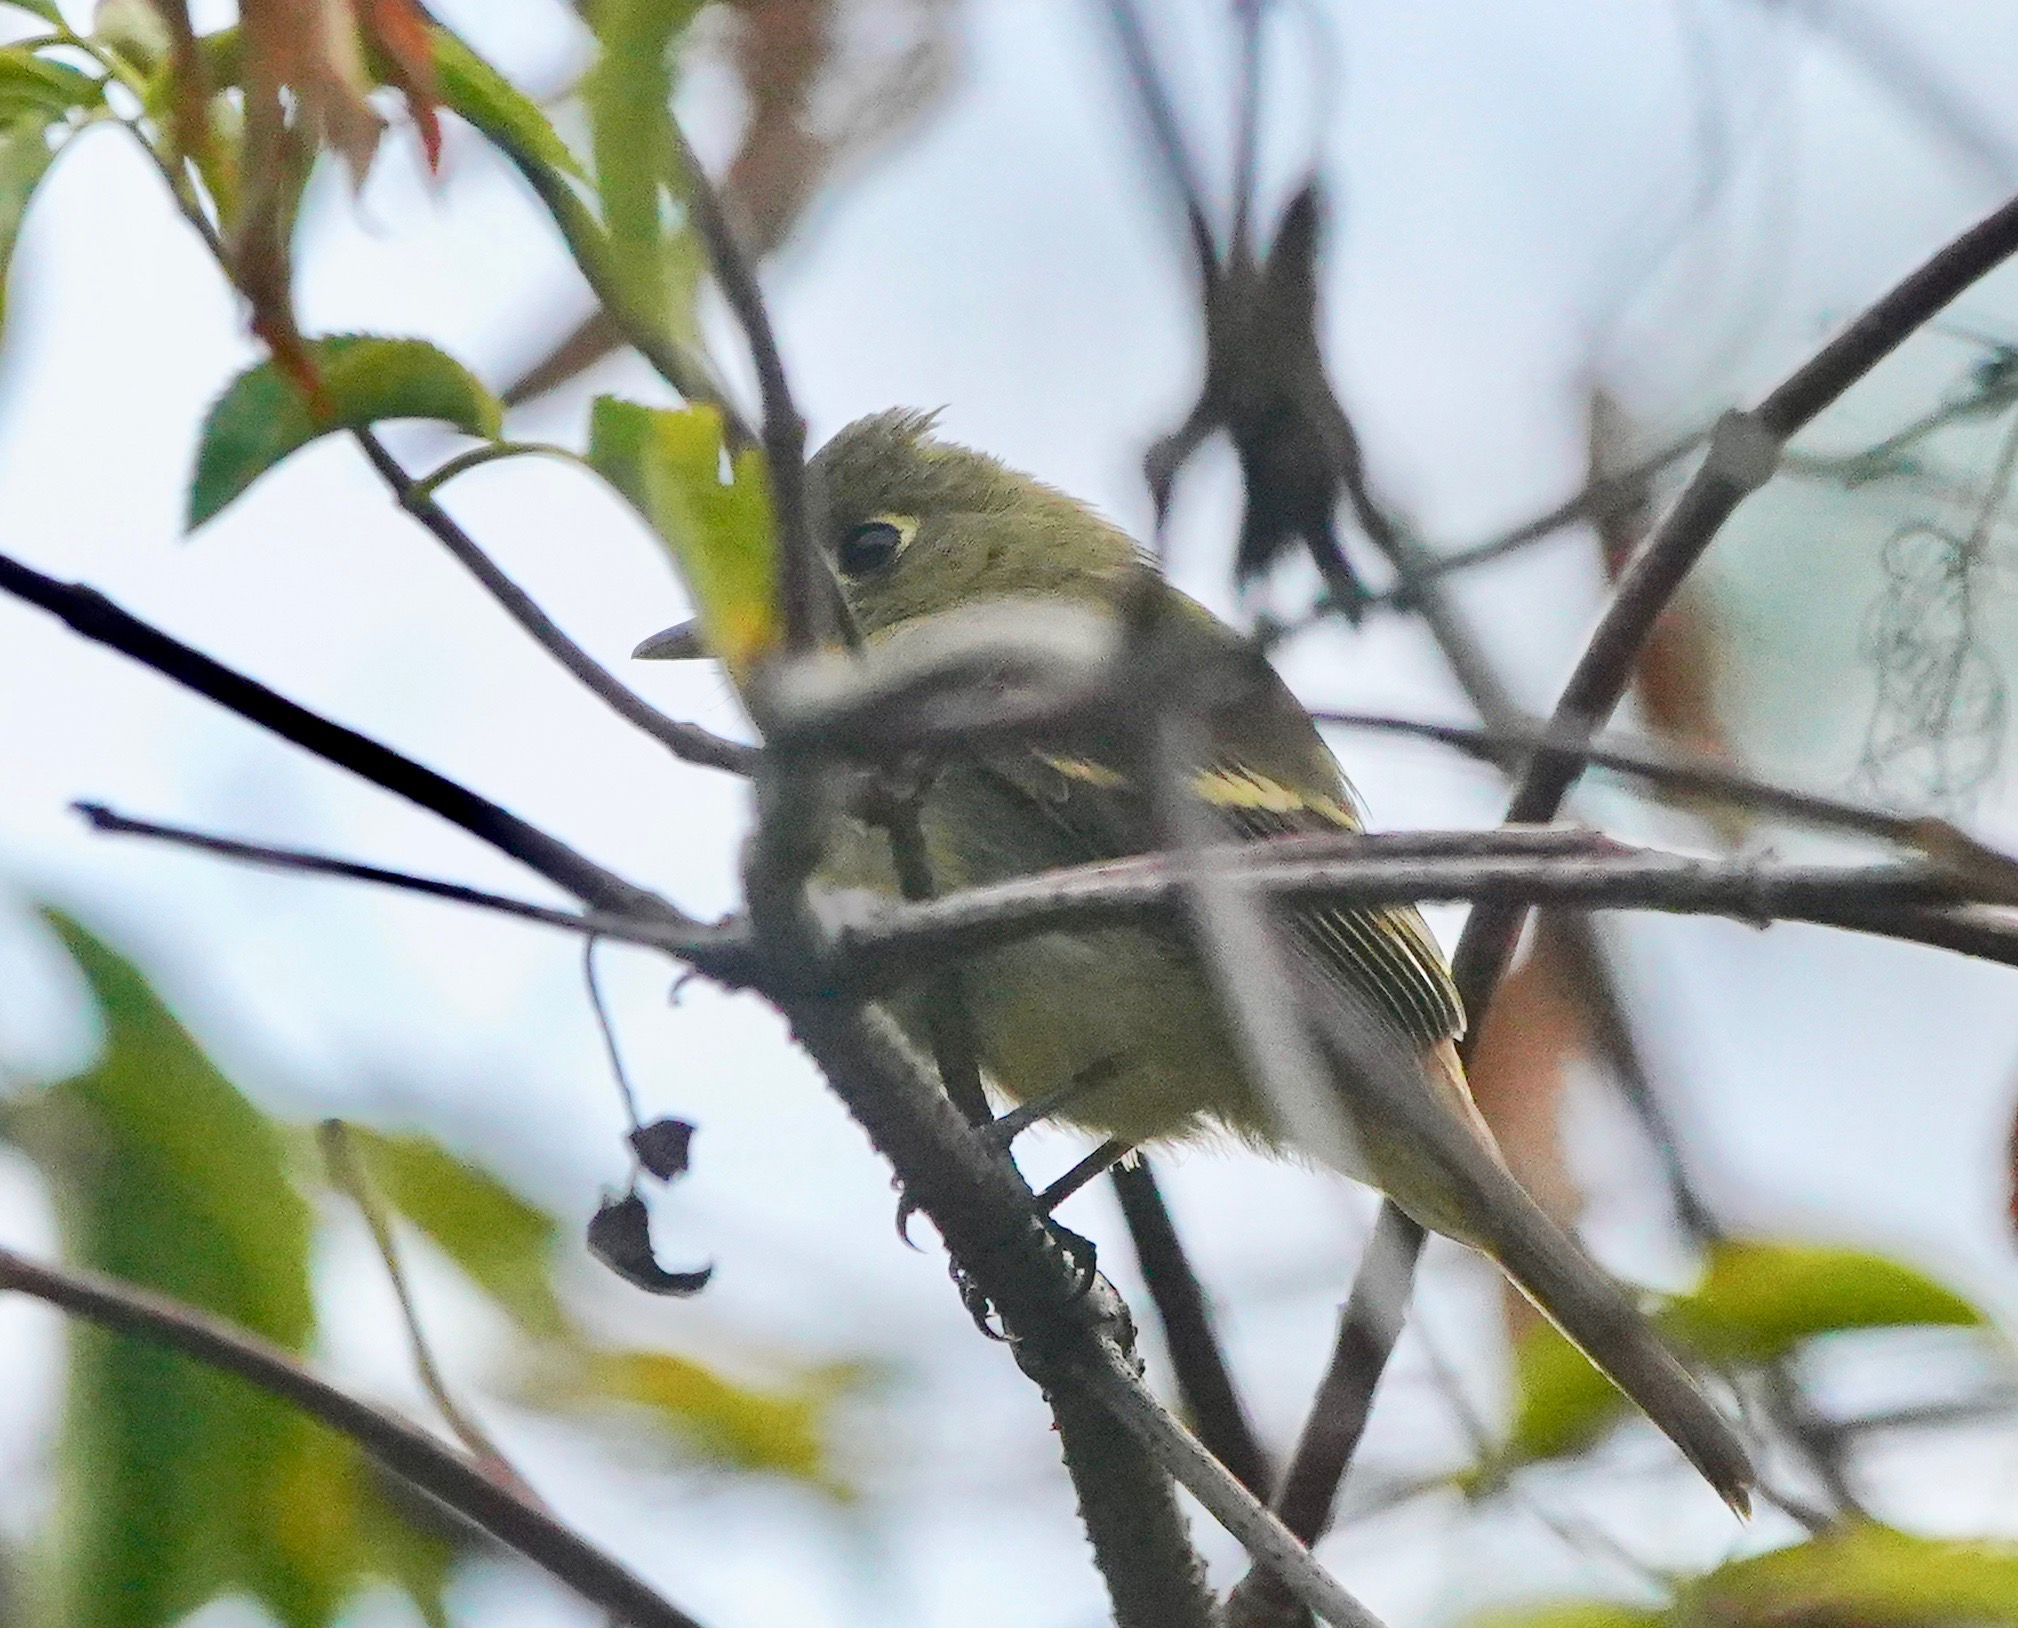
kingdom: Animalia
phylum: Chordata
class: Aves
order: Passeriformes
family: Tyrannidae
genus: Empidonax
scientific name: Empidonax difficilis
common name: Pacific-slope flycatcher
